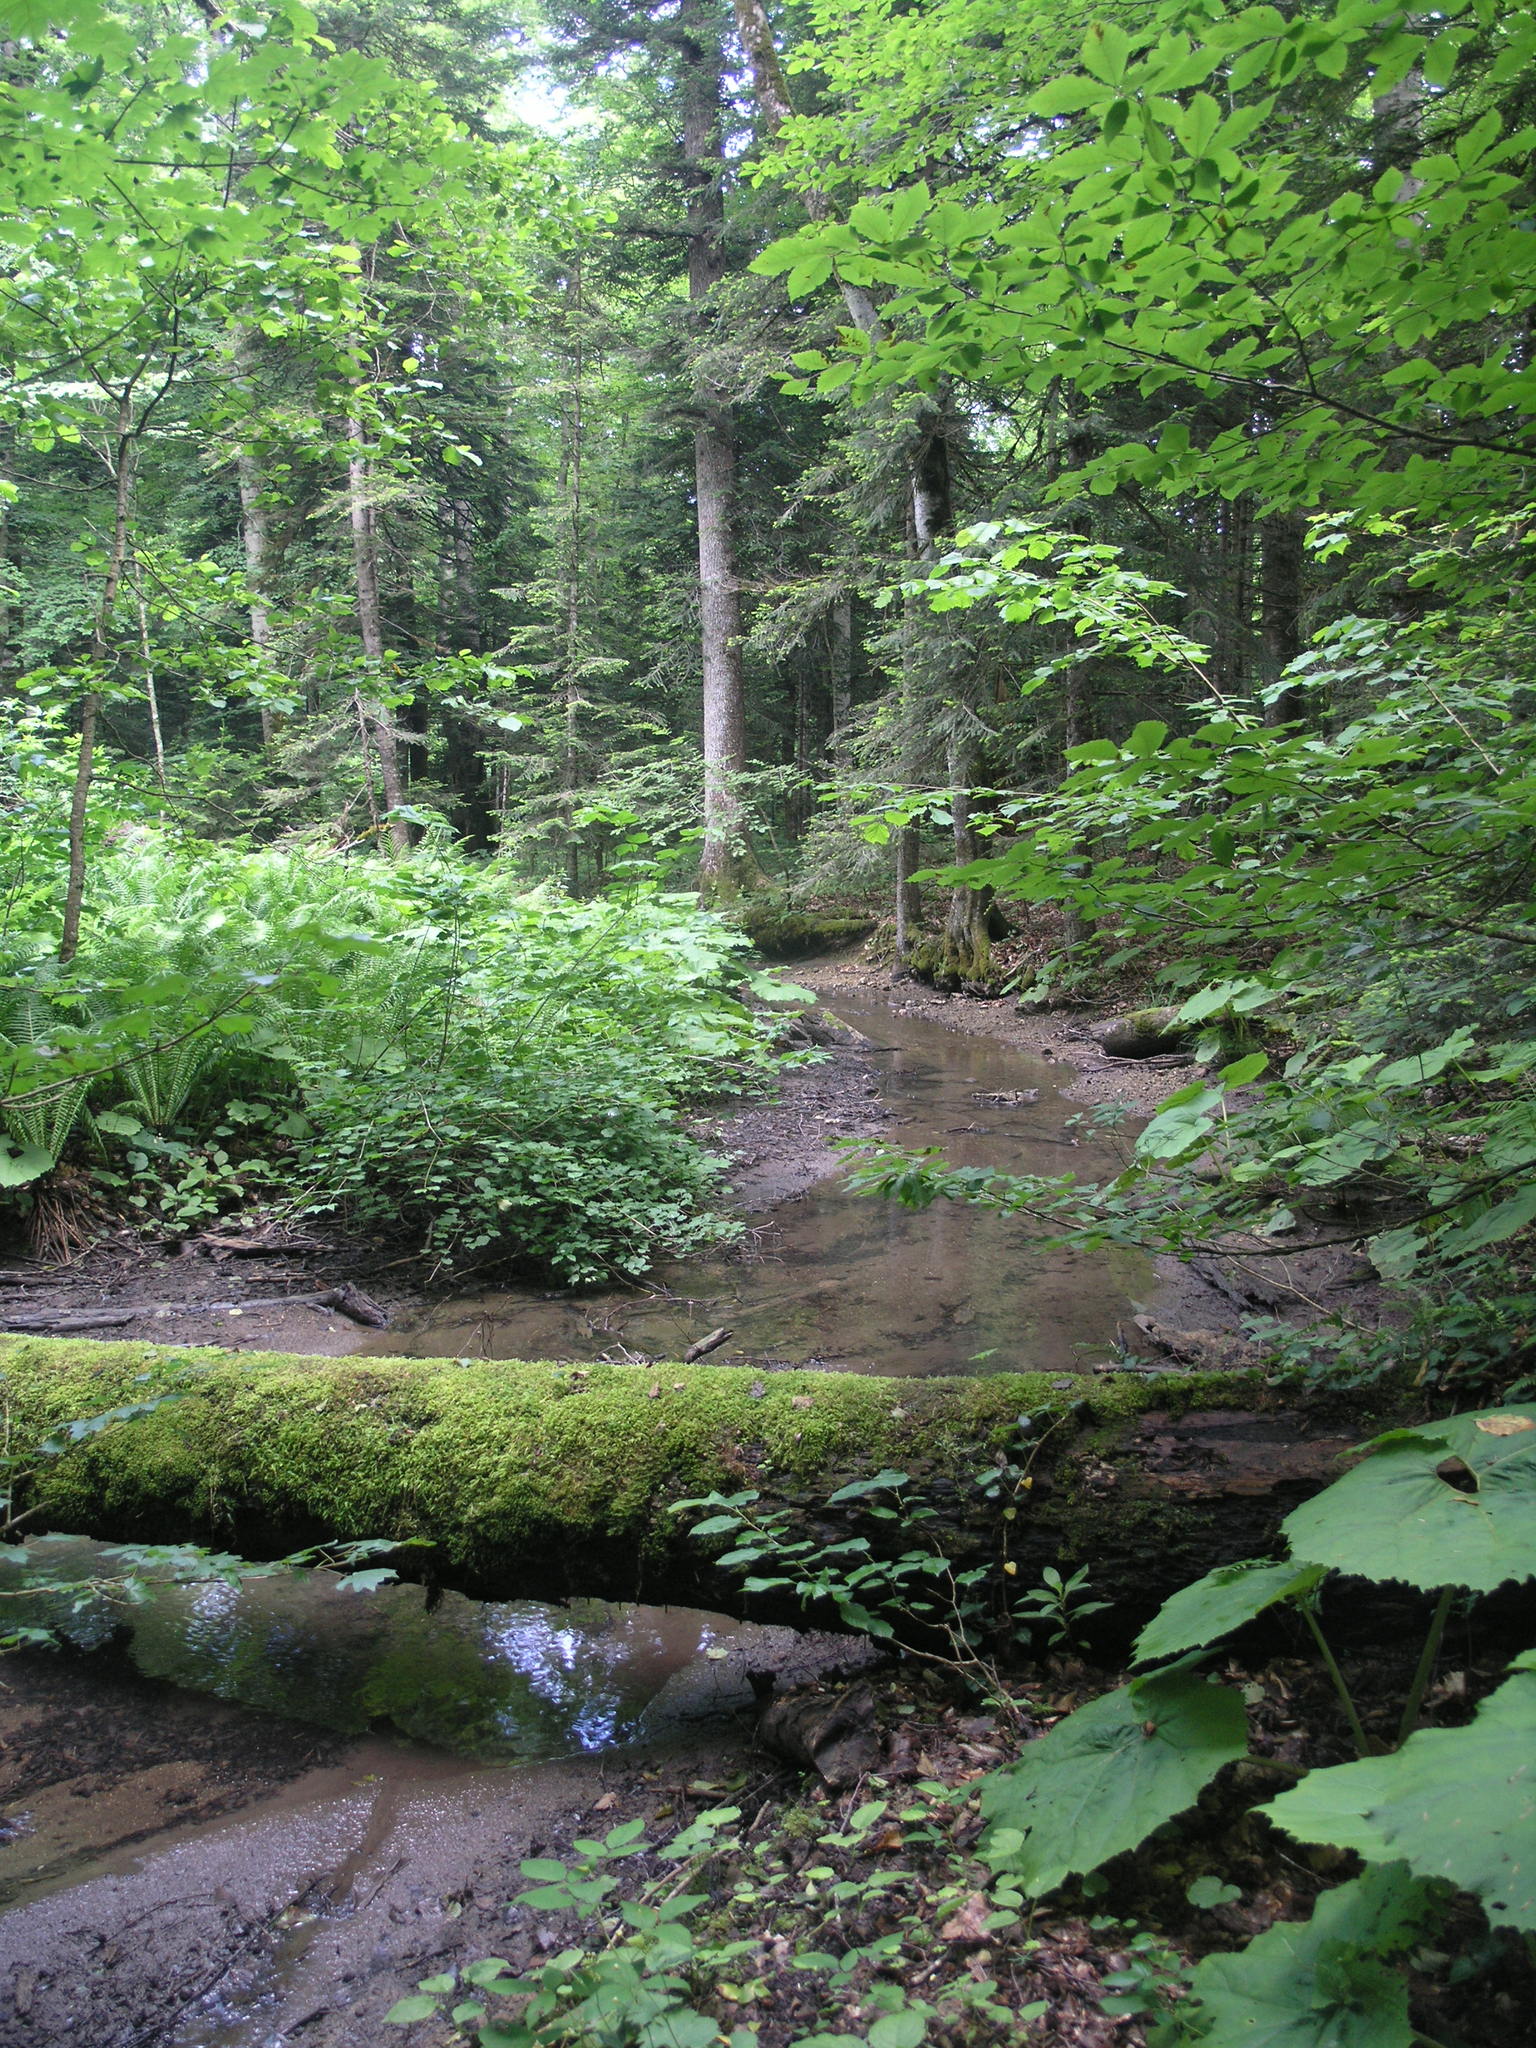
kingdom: Plantae
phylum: Tracheophyta
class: Magnoliopsida
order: Fagales
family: Fagaceae
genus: Fagus
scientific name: Fagus orientalis
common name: Oriental beech
